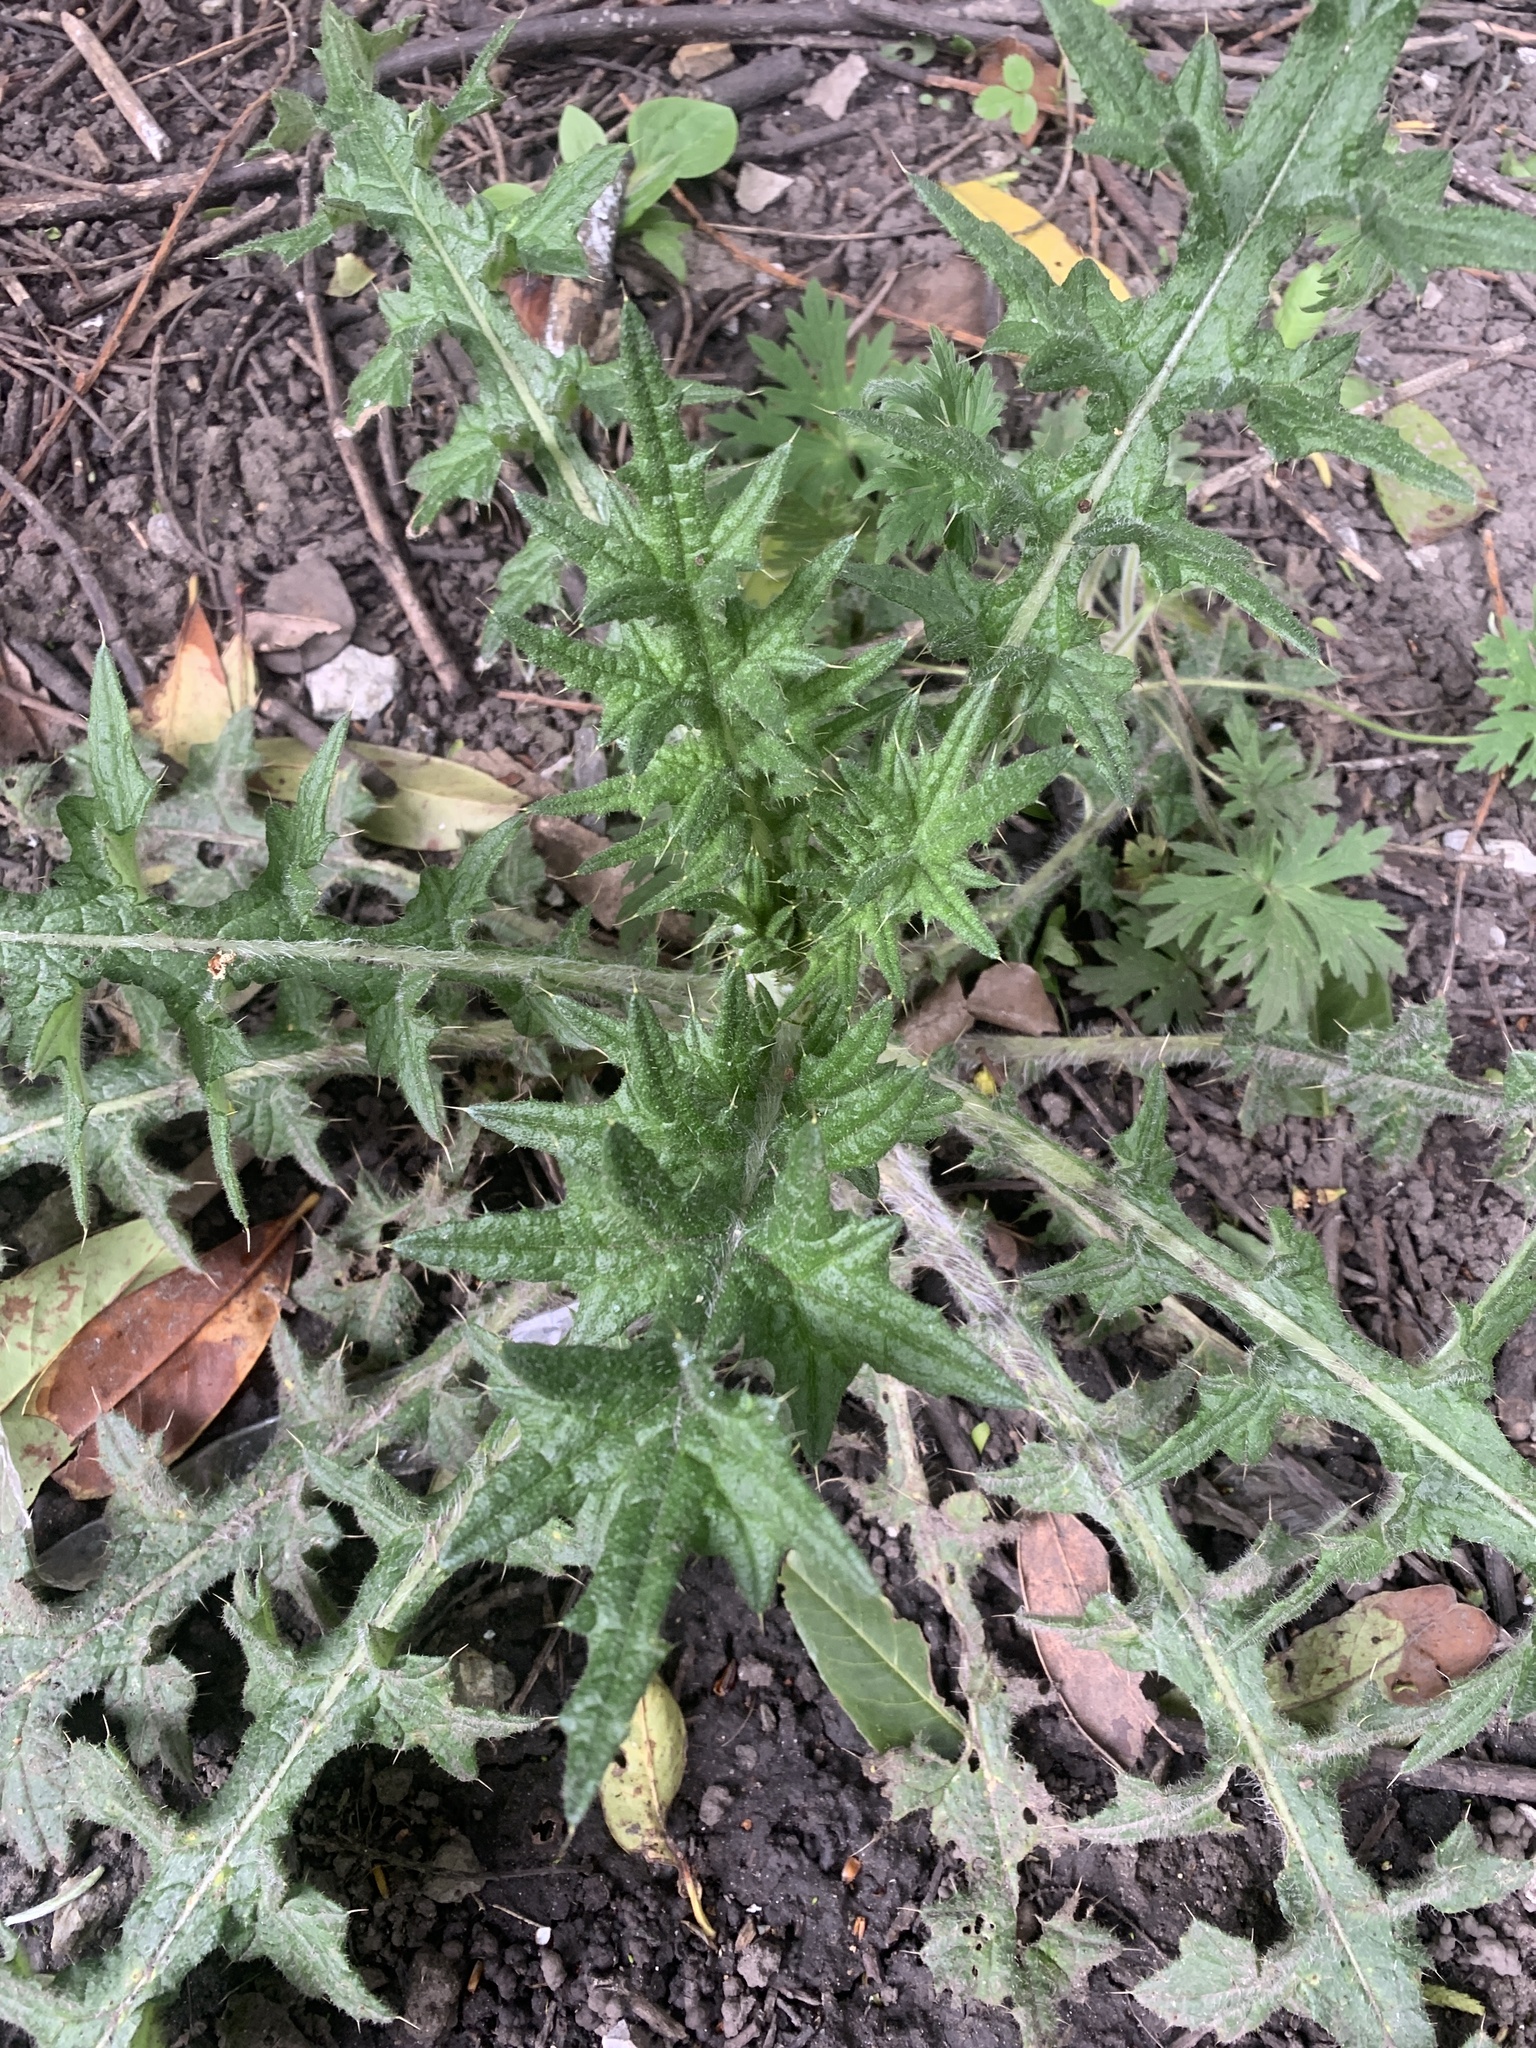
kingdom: Plantae
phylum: Tracheophyta
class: Magnoliopsida
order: Asterales
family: Asteraceae
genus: Cirsium
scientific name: Cirsium vulgare
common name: Bull thistle
